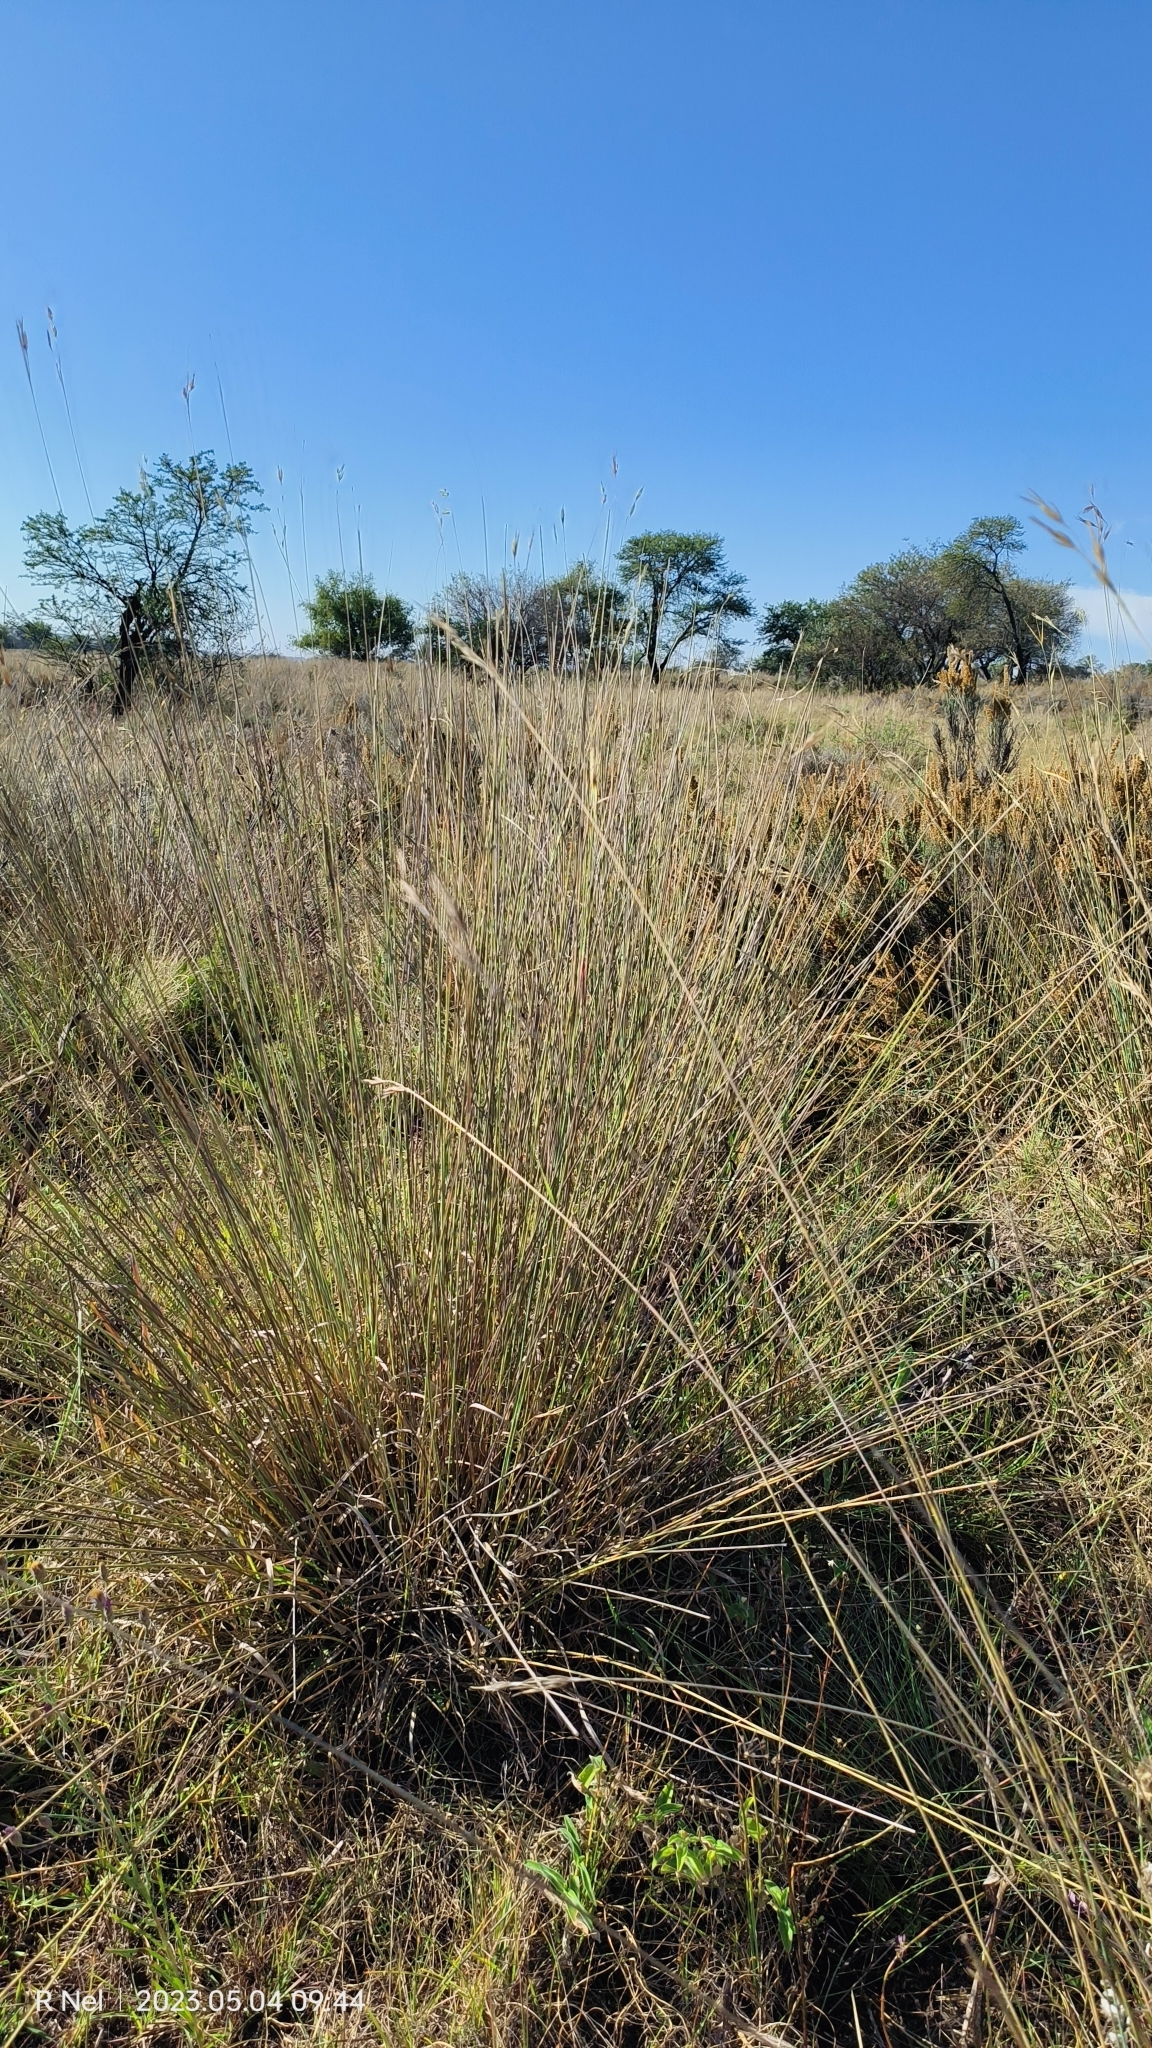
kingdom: Plantae
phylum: Tracheophyta
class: Liliopsida
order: Poales
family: Poaceae
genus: Tristachya
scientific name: Tristachya rehmannii
